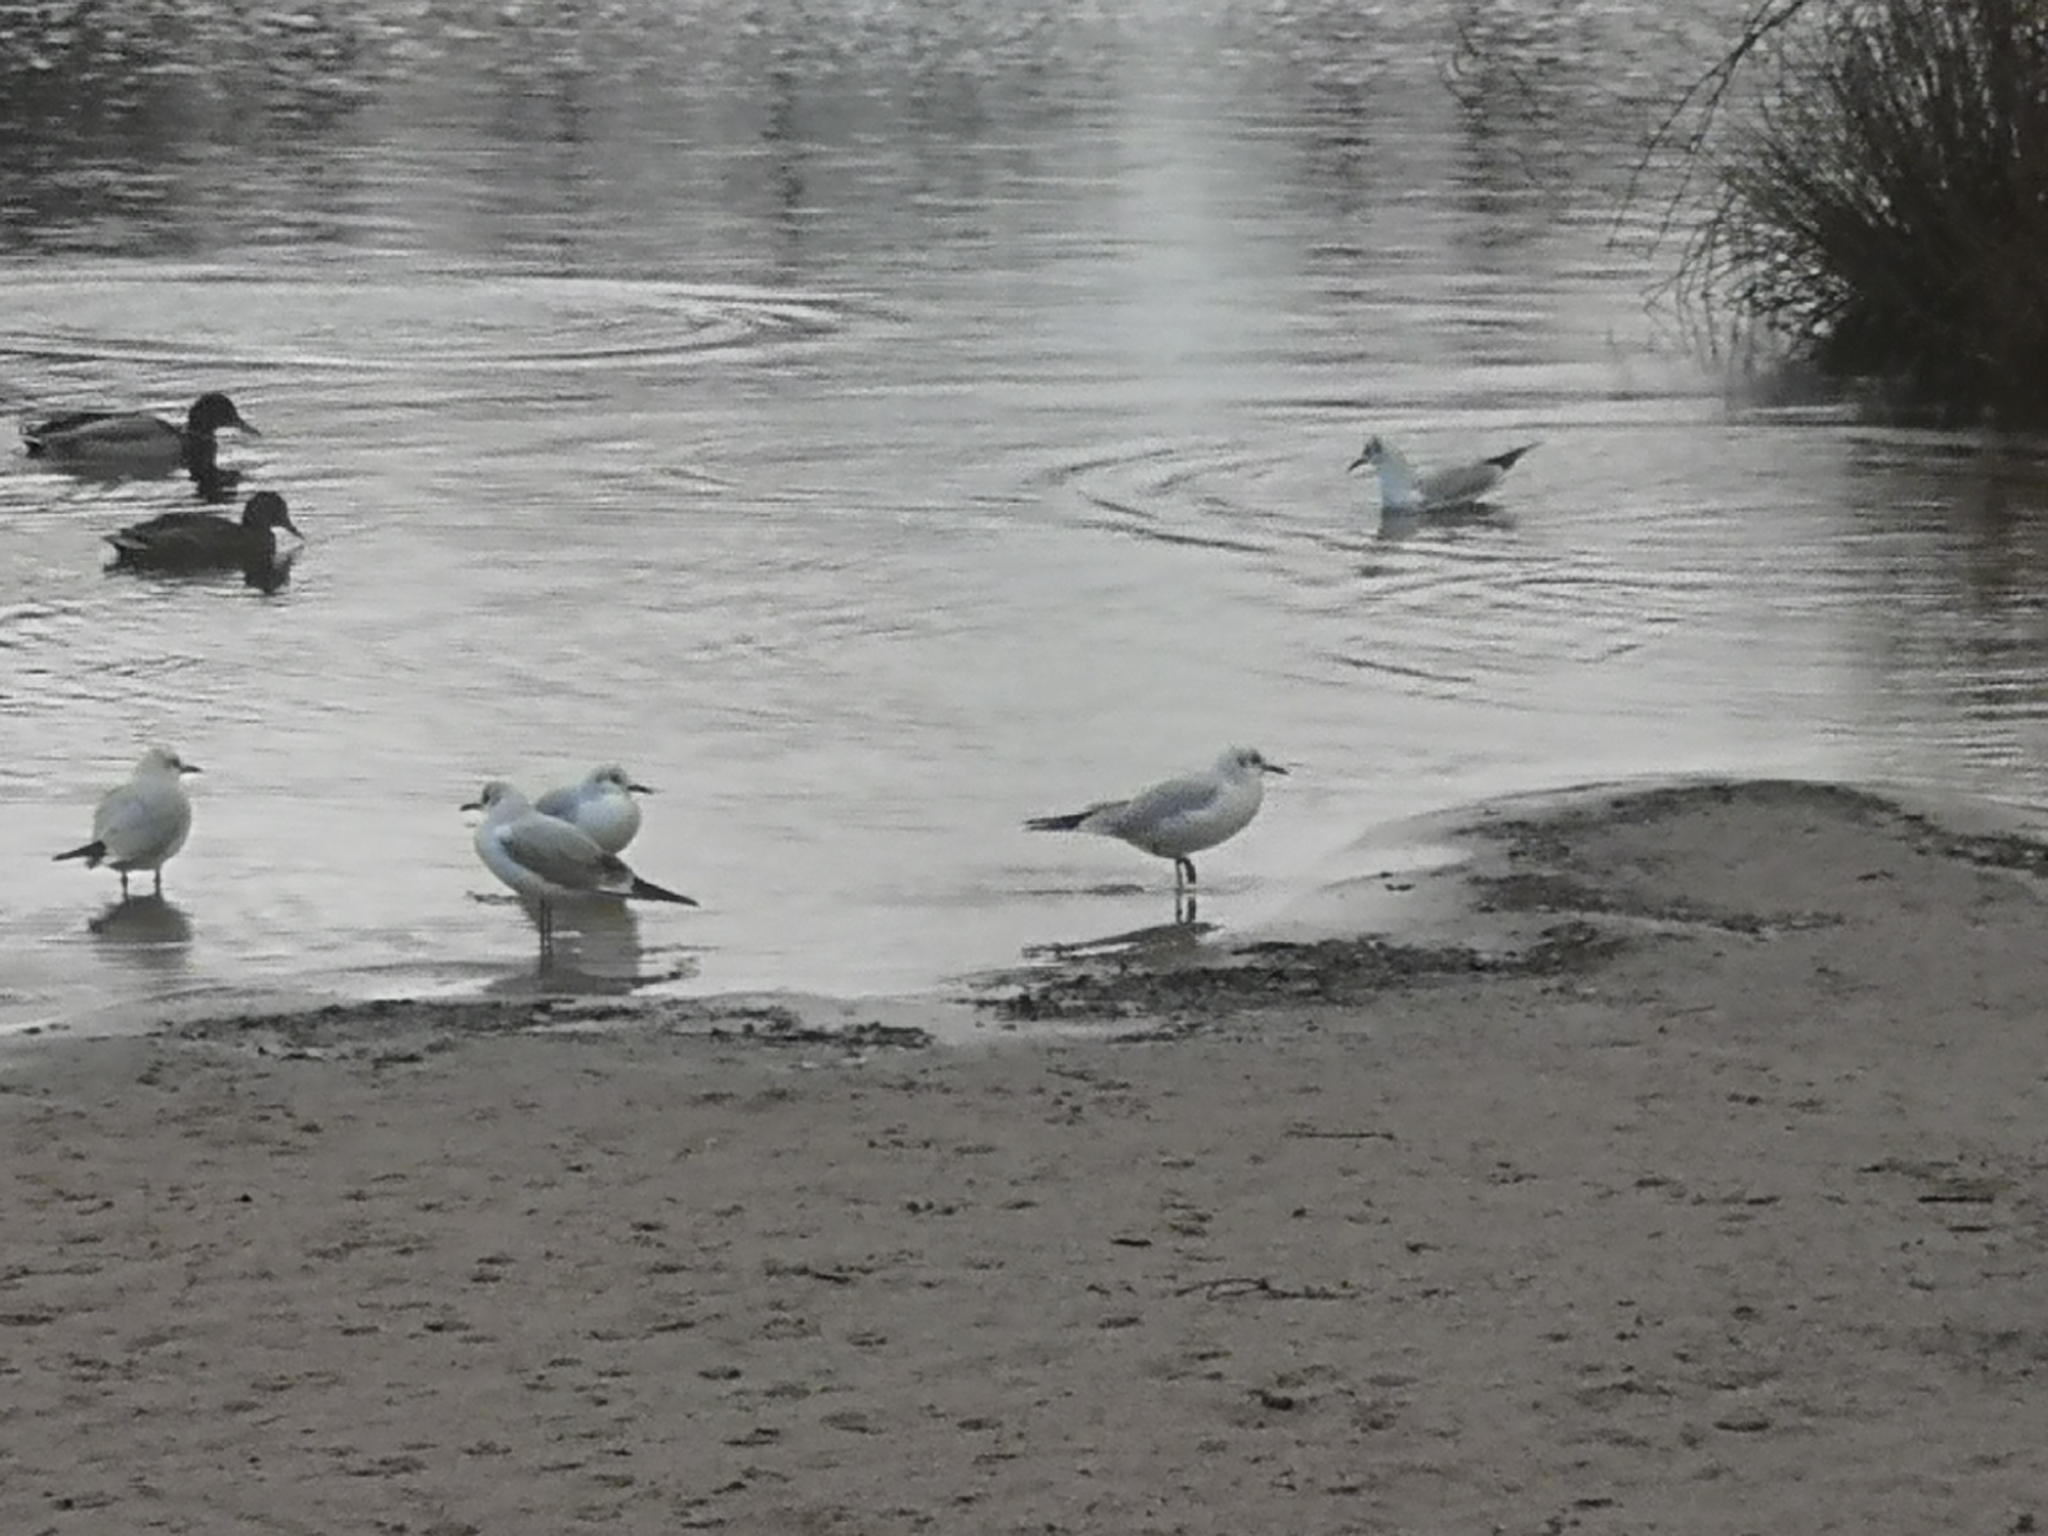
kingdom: Animalia
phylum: Chordata
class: Aves
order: Charadriiformes
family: Laridae
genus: Chroicocephalus
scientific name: Chroicocephalus ridibundus
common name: Black-headed gull
